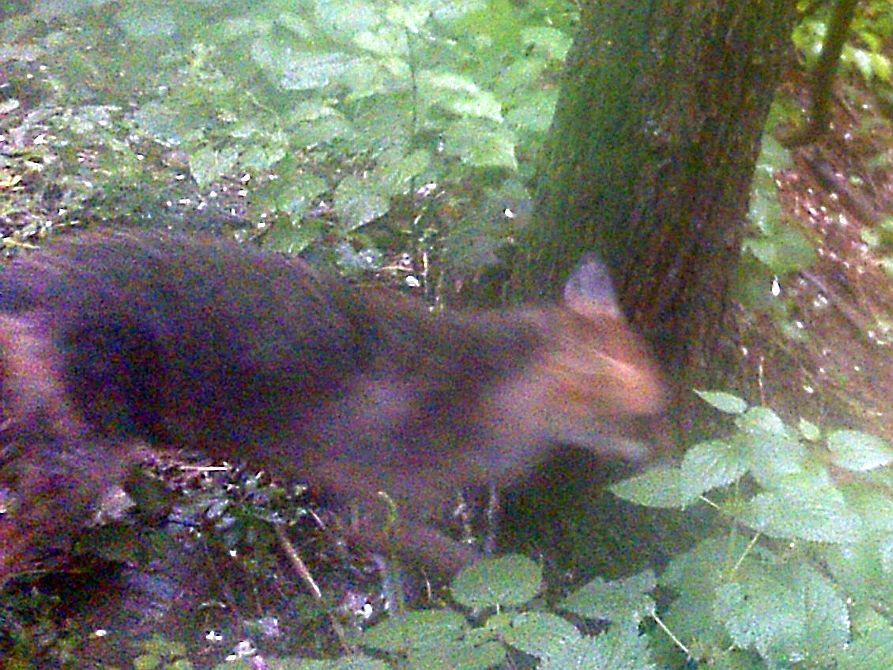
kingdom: Animalia
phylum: Chordata
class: Mammalia
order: Carnivora
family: Canidae
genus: Vulpes
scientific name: Vulpes vulpes
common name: Red fox
